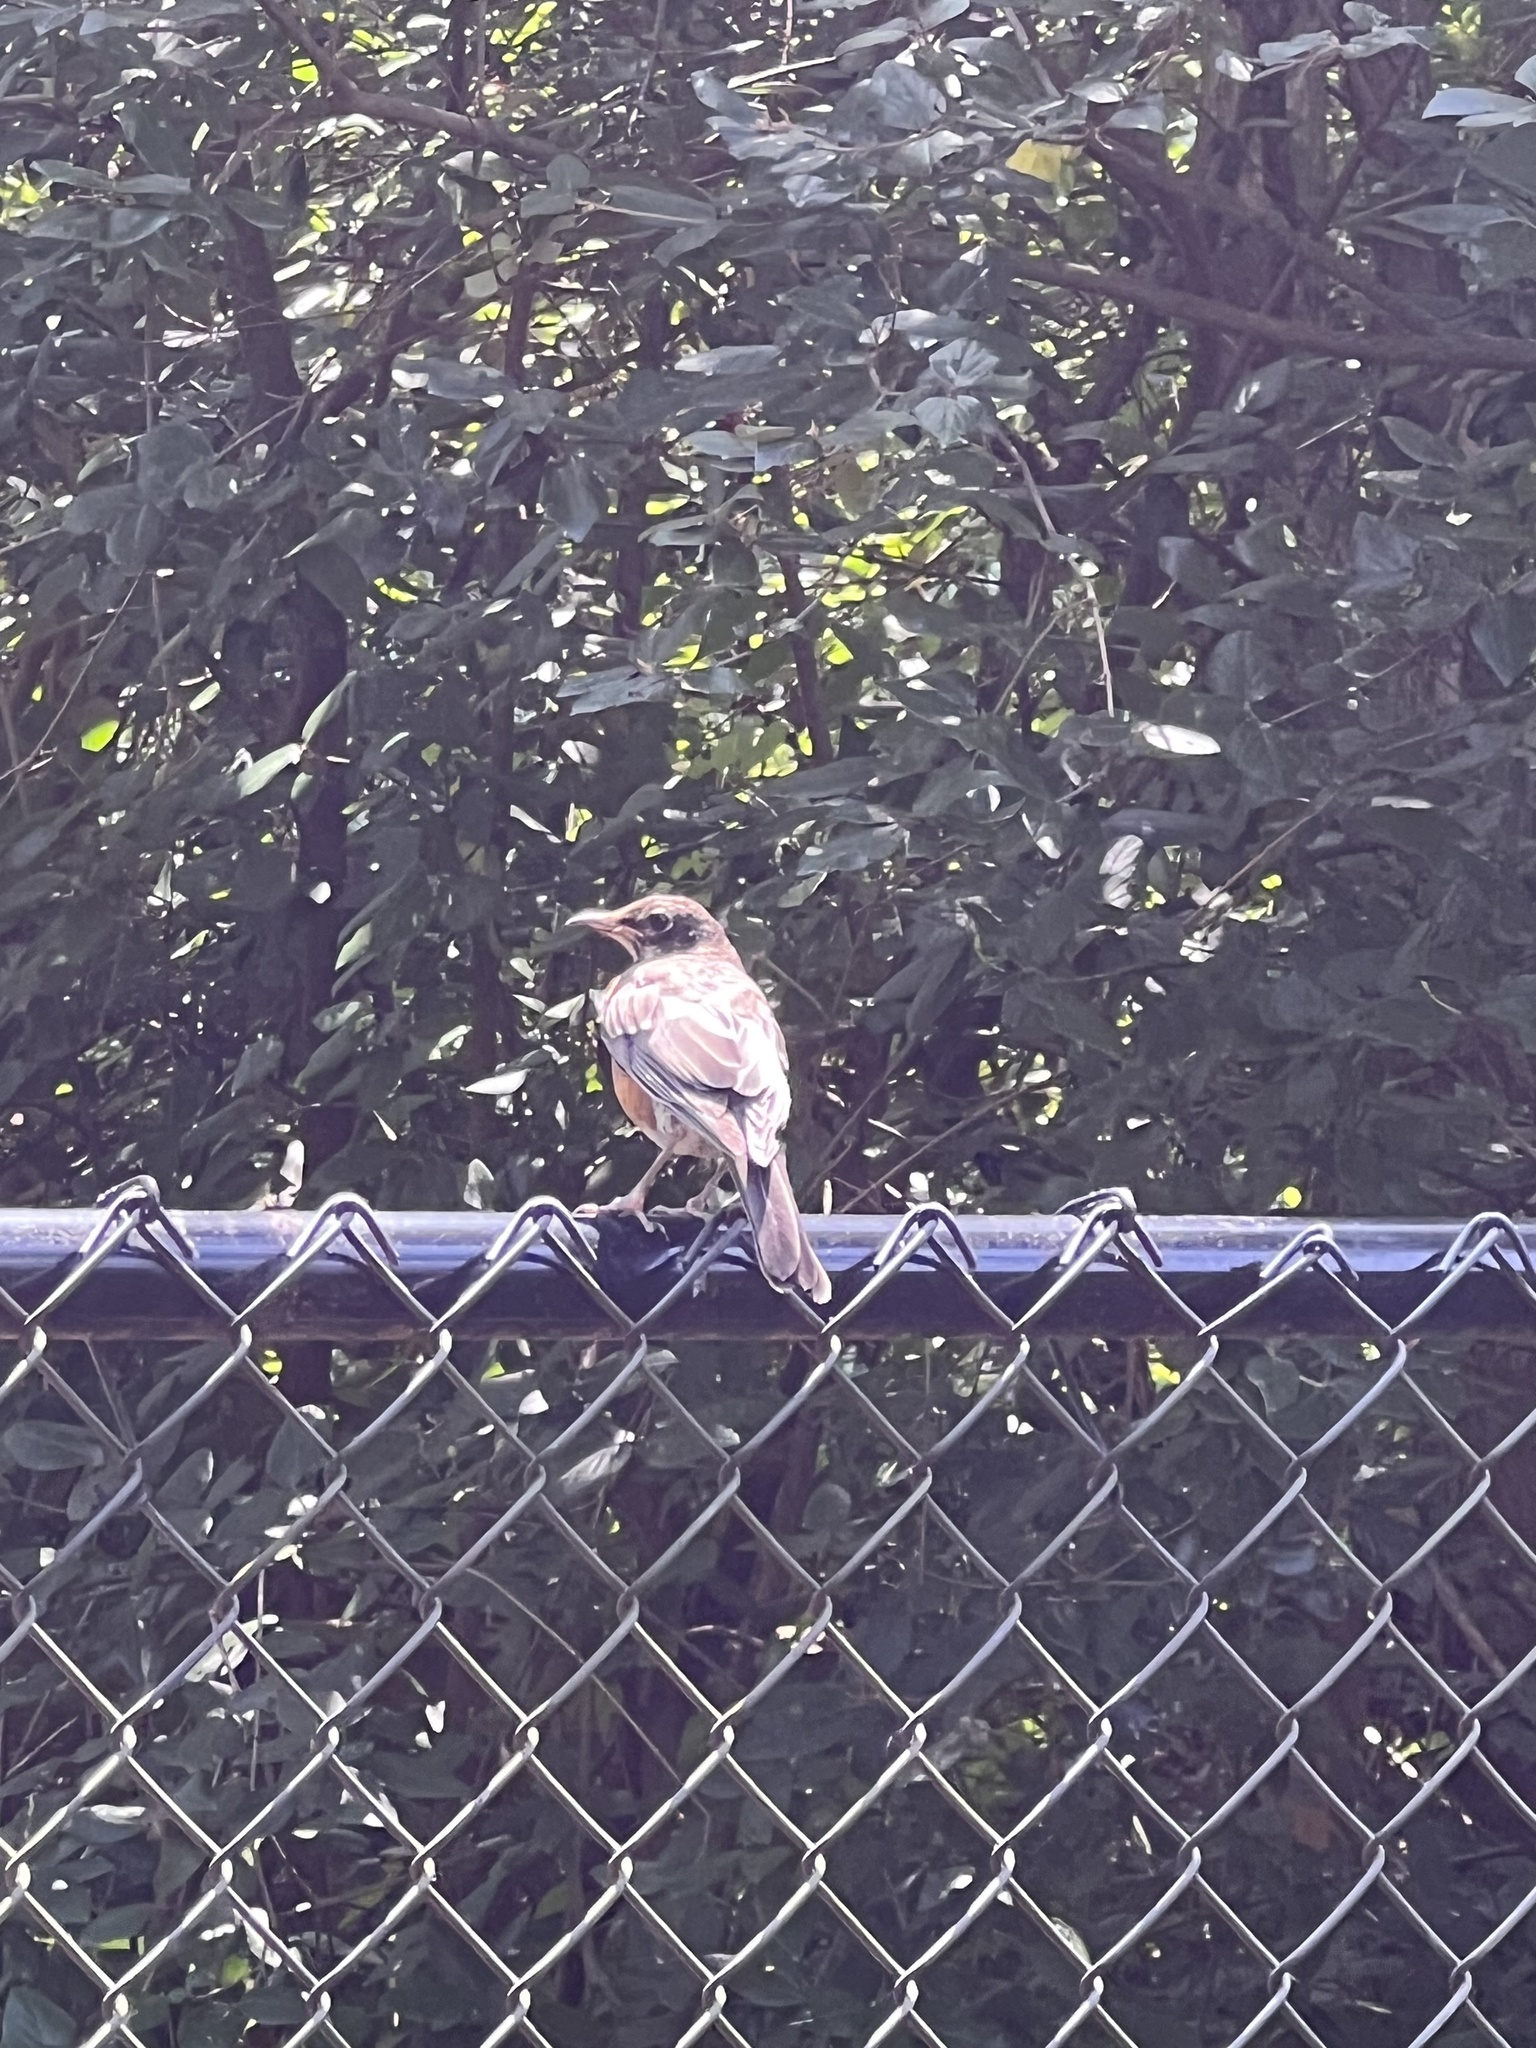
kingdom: Animalia
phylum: Chordata
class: Aves
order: Passeriformes
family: Turdidae
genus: Turdus
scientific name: Turdus migratorius
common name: American robin
